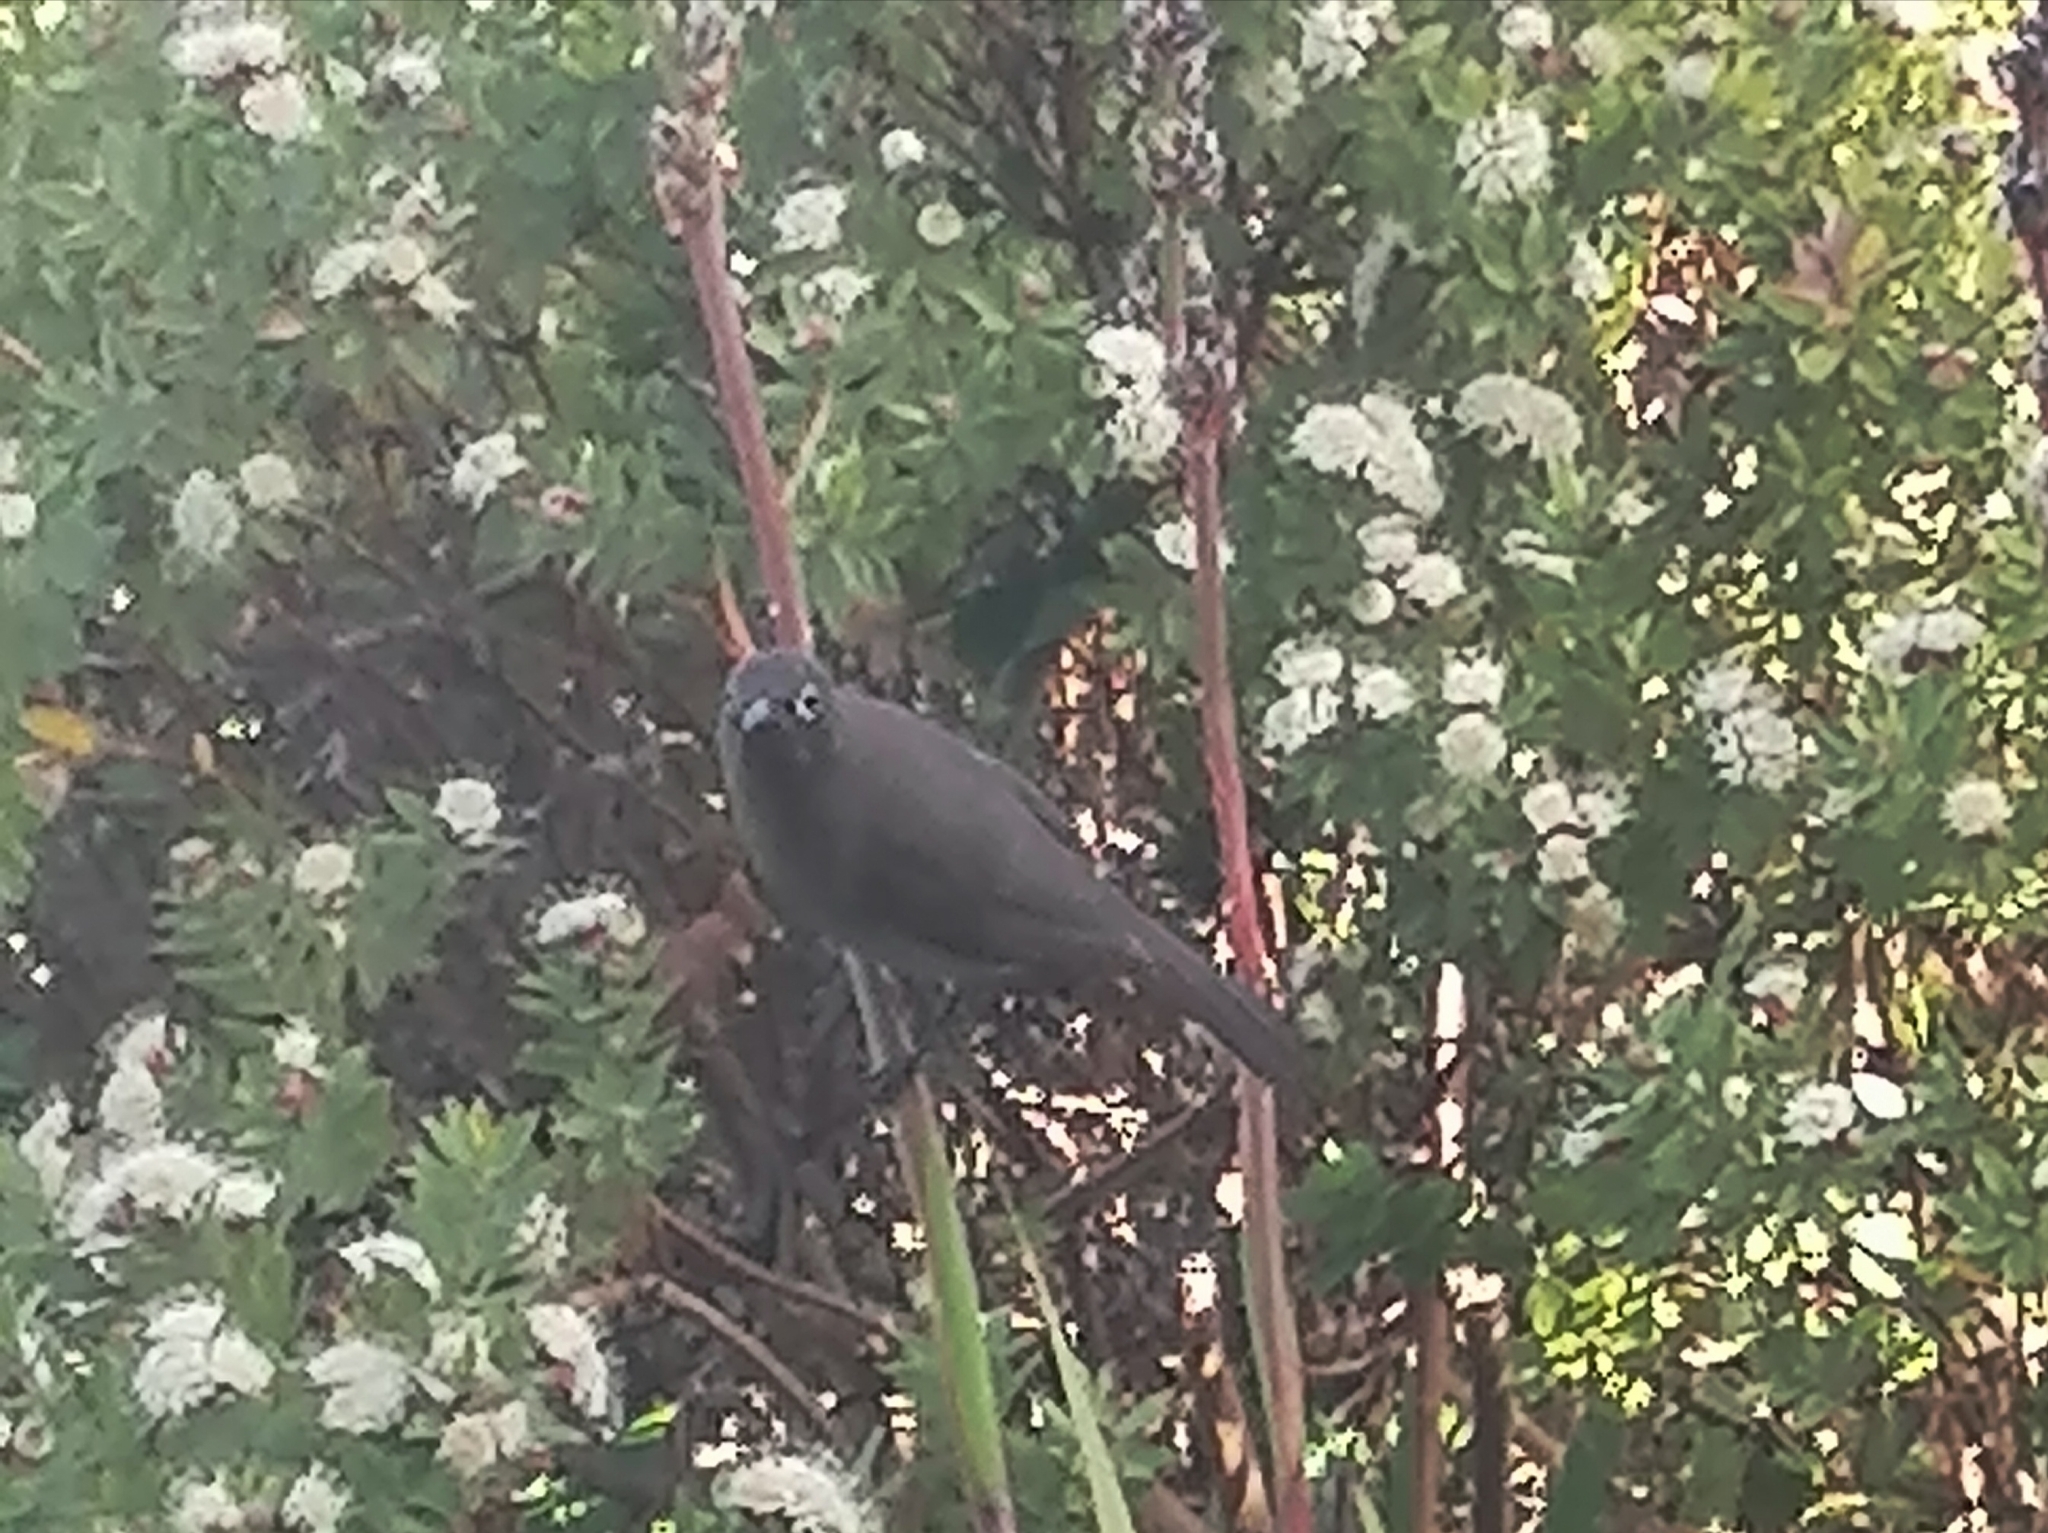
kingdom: Animalia
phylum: Chordata
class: Aves
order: Passeriformes
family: Pycnonotidae
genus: Pycnonotus
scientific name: Pycnonotus capensis
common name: Cape bulbul
